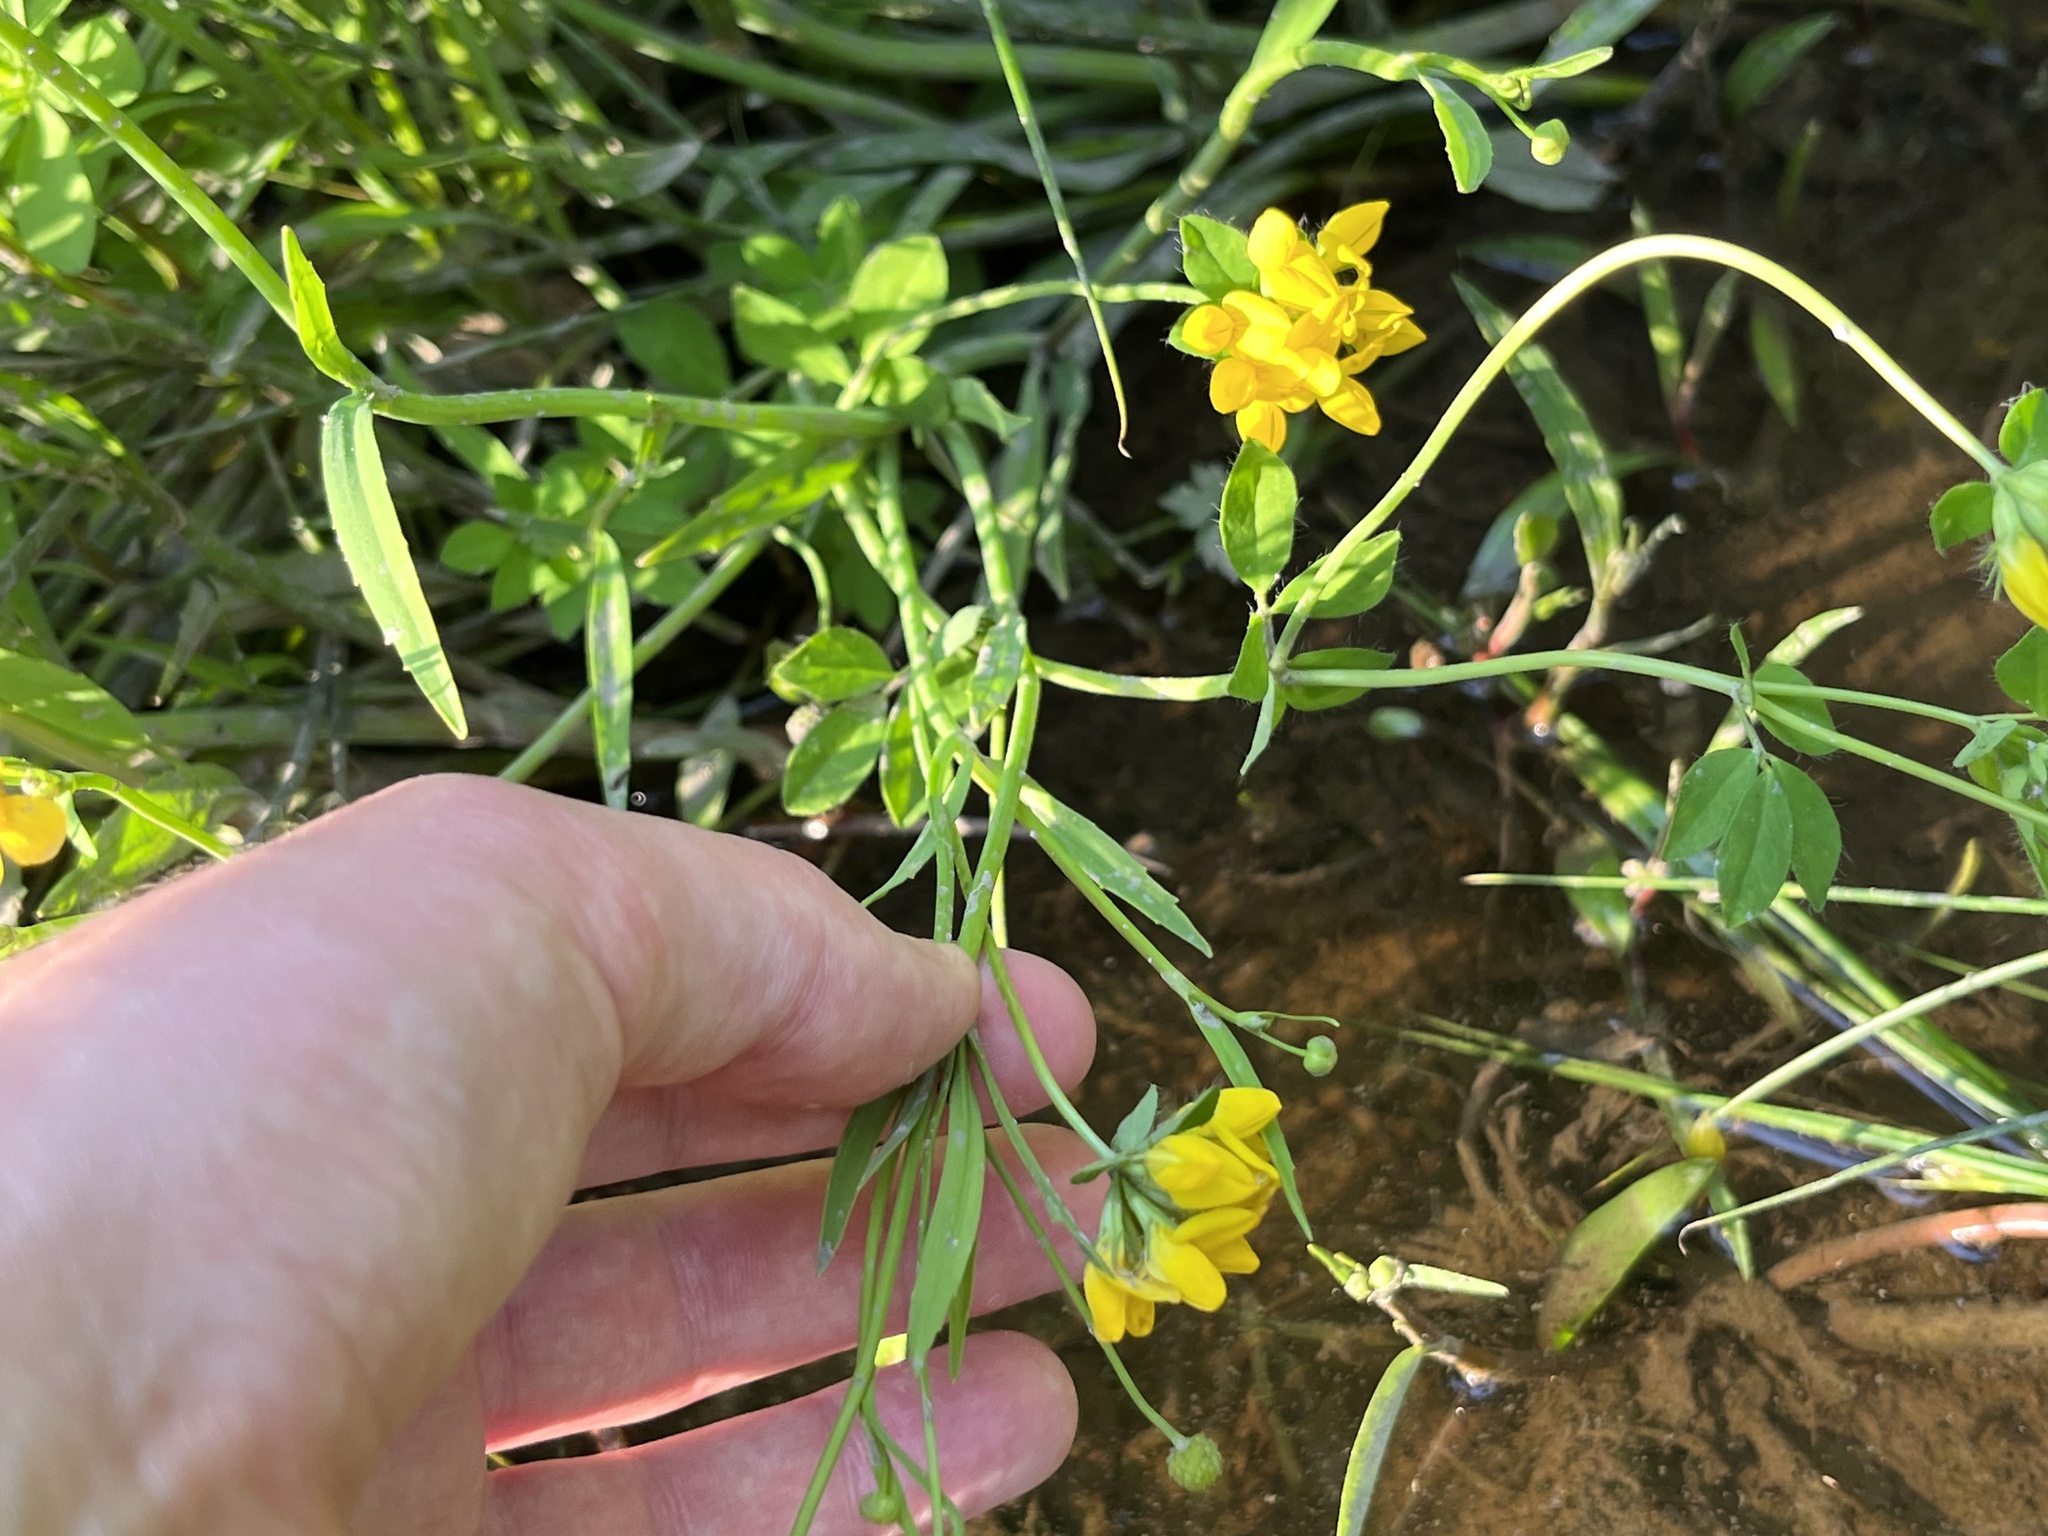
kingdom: Plantae
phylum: Tracheophyta
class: Magnoliopsida
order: Fabales
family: Fabaceae
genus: Lotus
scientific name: Lotus pedunculatus
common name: Greater birdsfoot-trefoil
